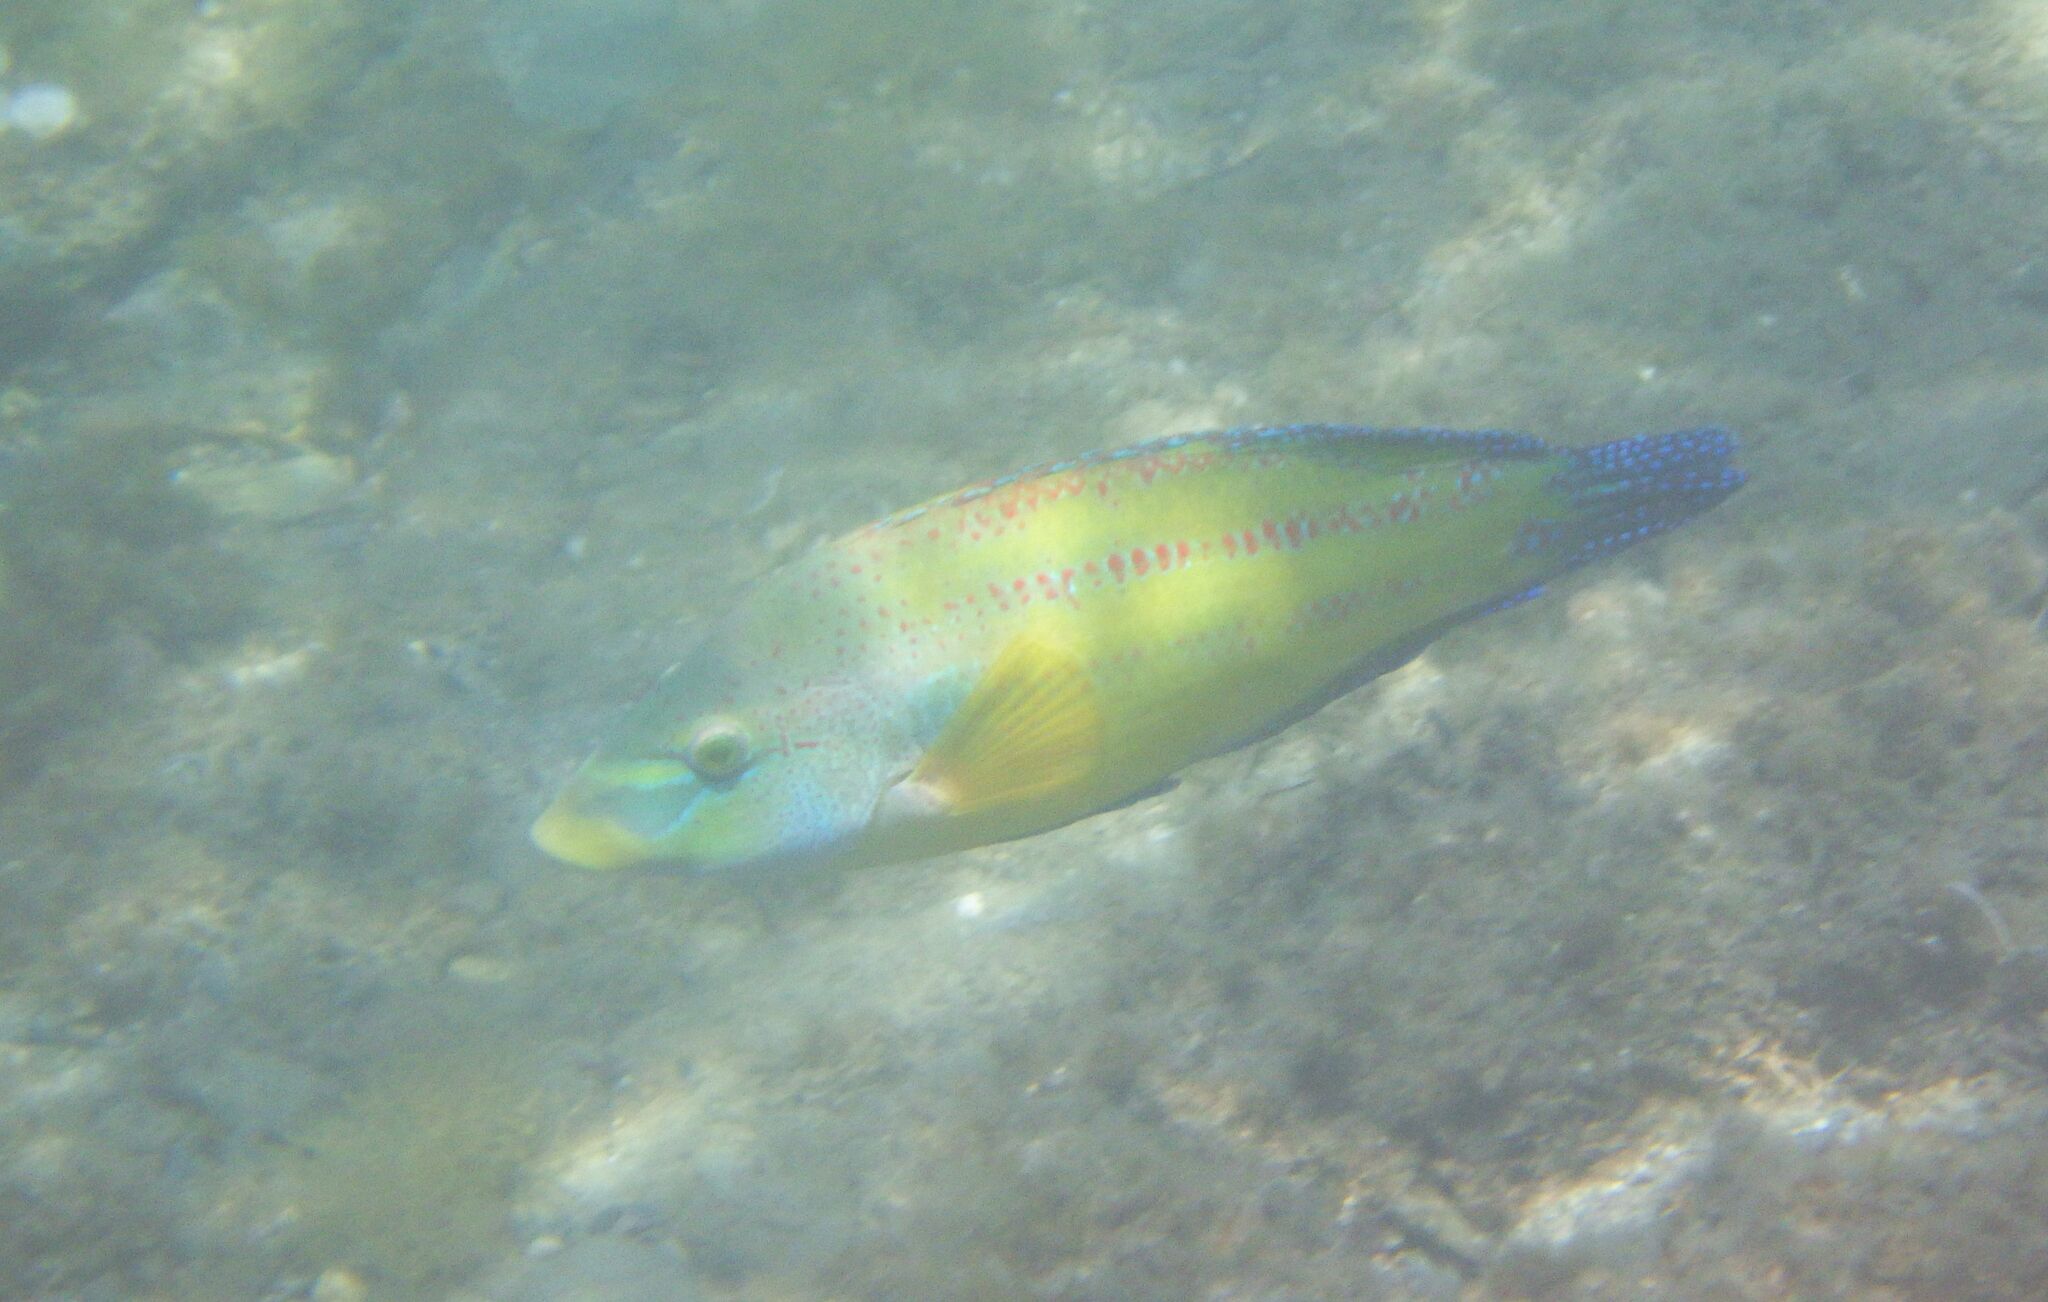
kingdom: Animalia
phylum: Chordata
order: Perciformes
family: Labridae
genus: Symphodus
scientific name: Symphodus tinca
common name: Peacock wrasse
